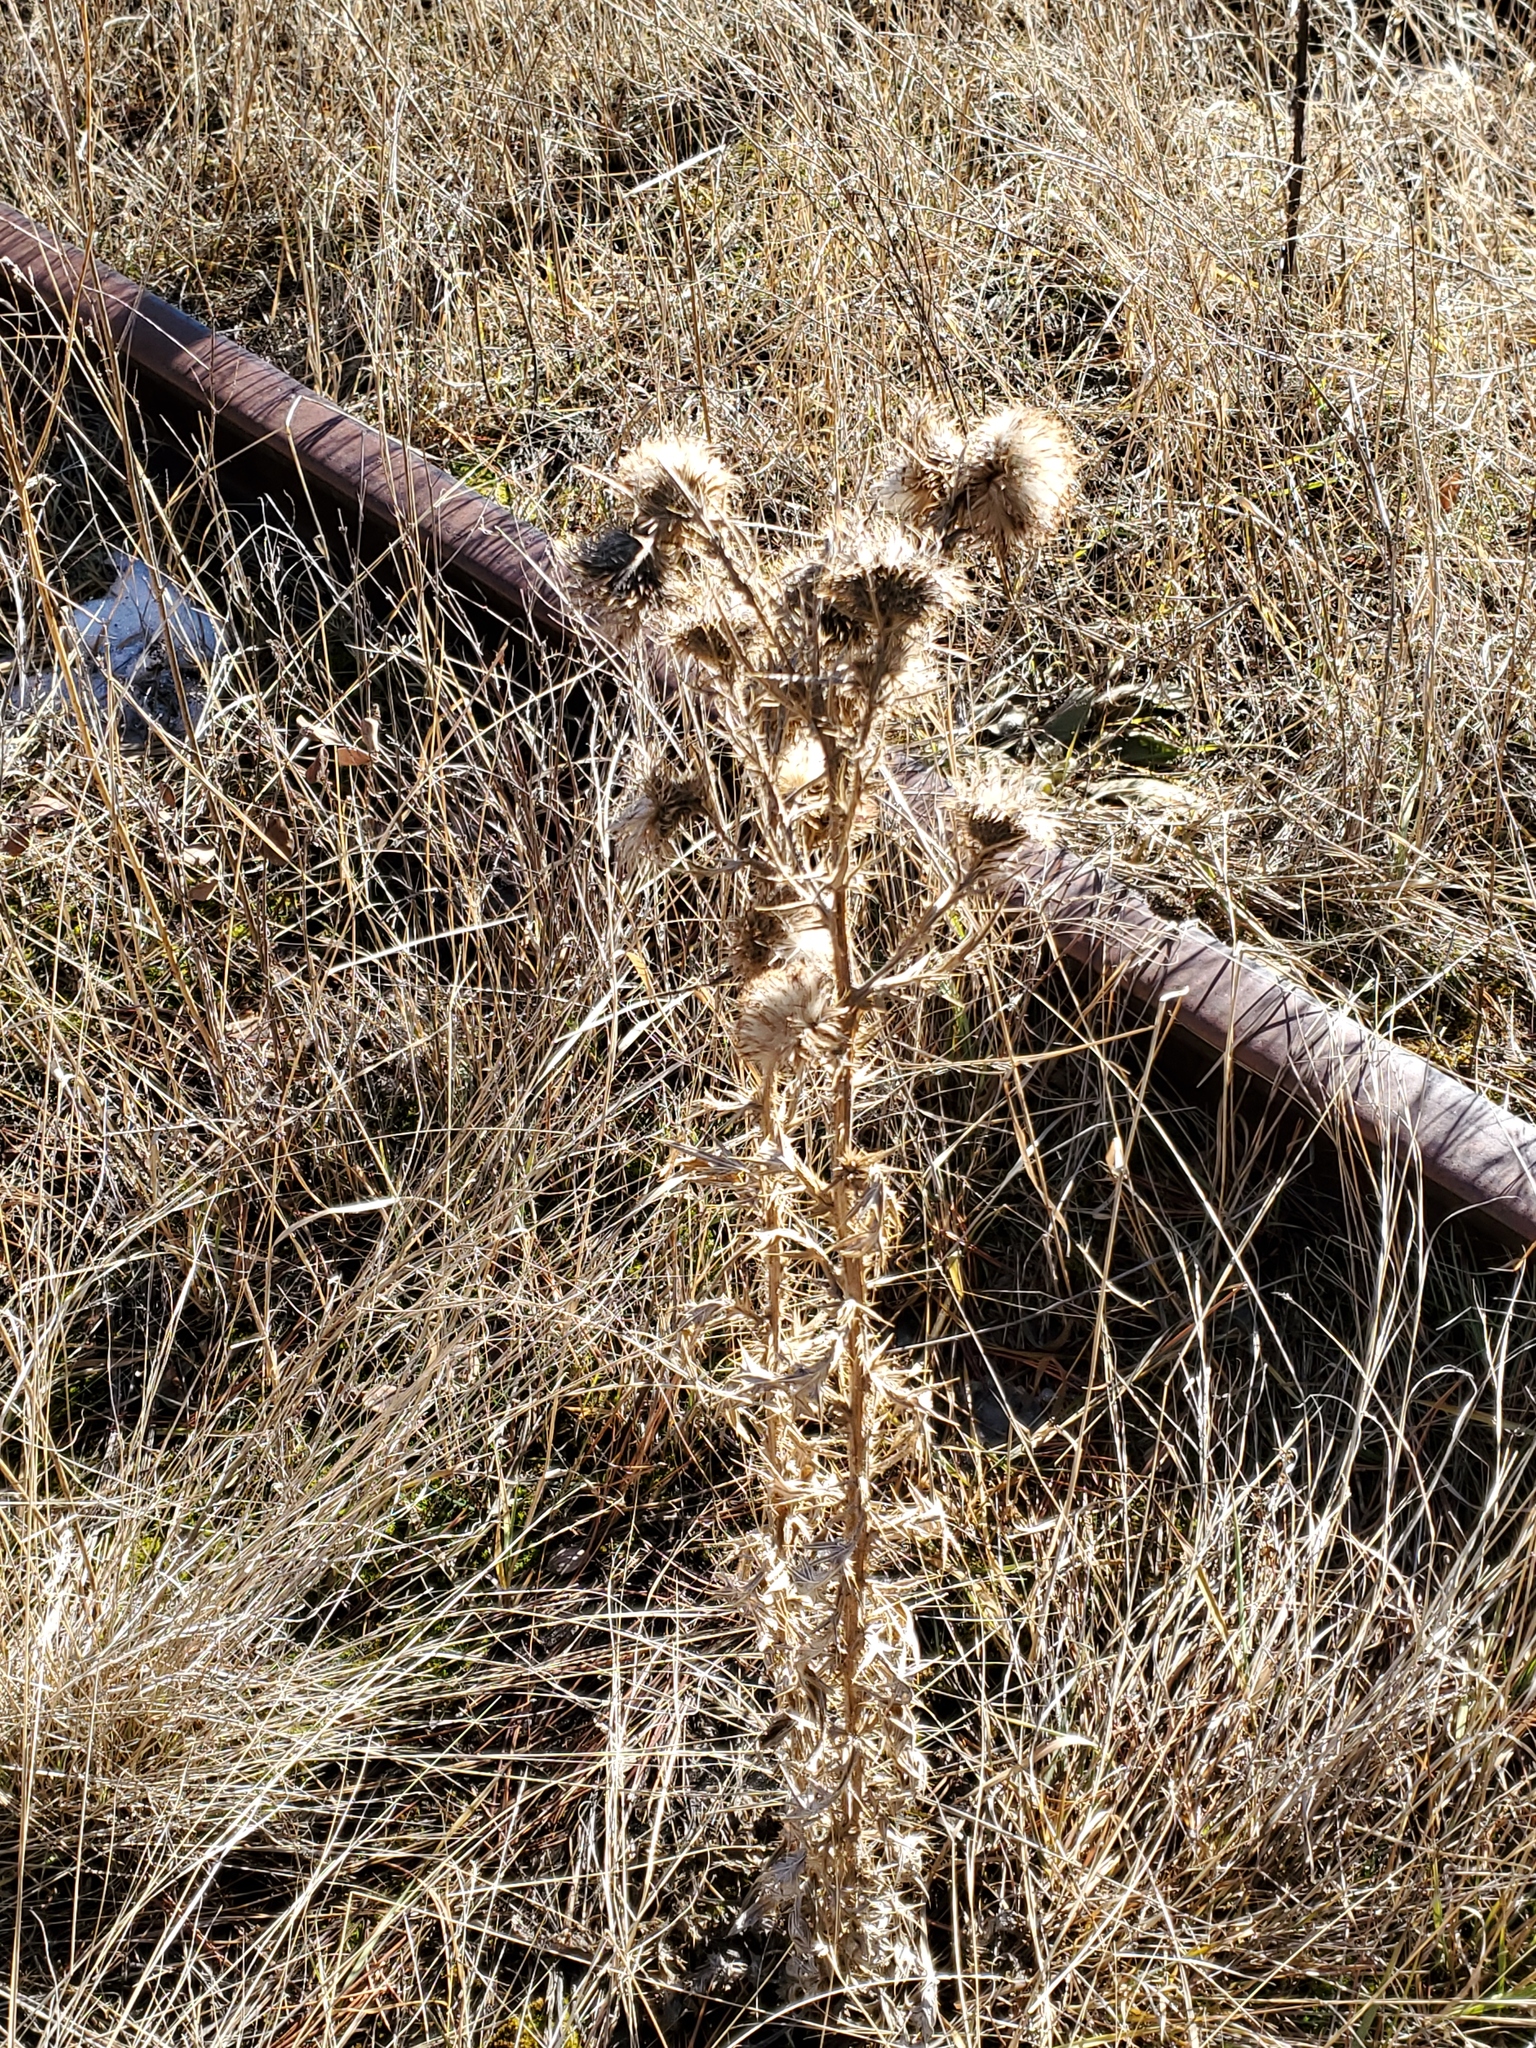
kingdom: Plantae
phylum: Tracheophyta
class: Magnoliopsida
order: Asterales
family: Asteraceae
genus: Cirsium
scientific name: Cirsium vulgare
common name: Bull thistle
